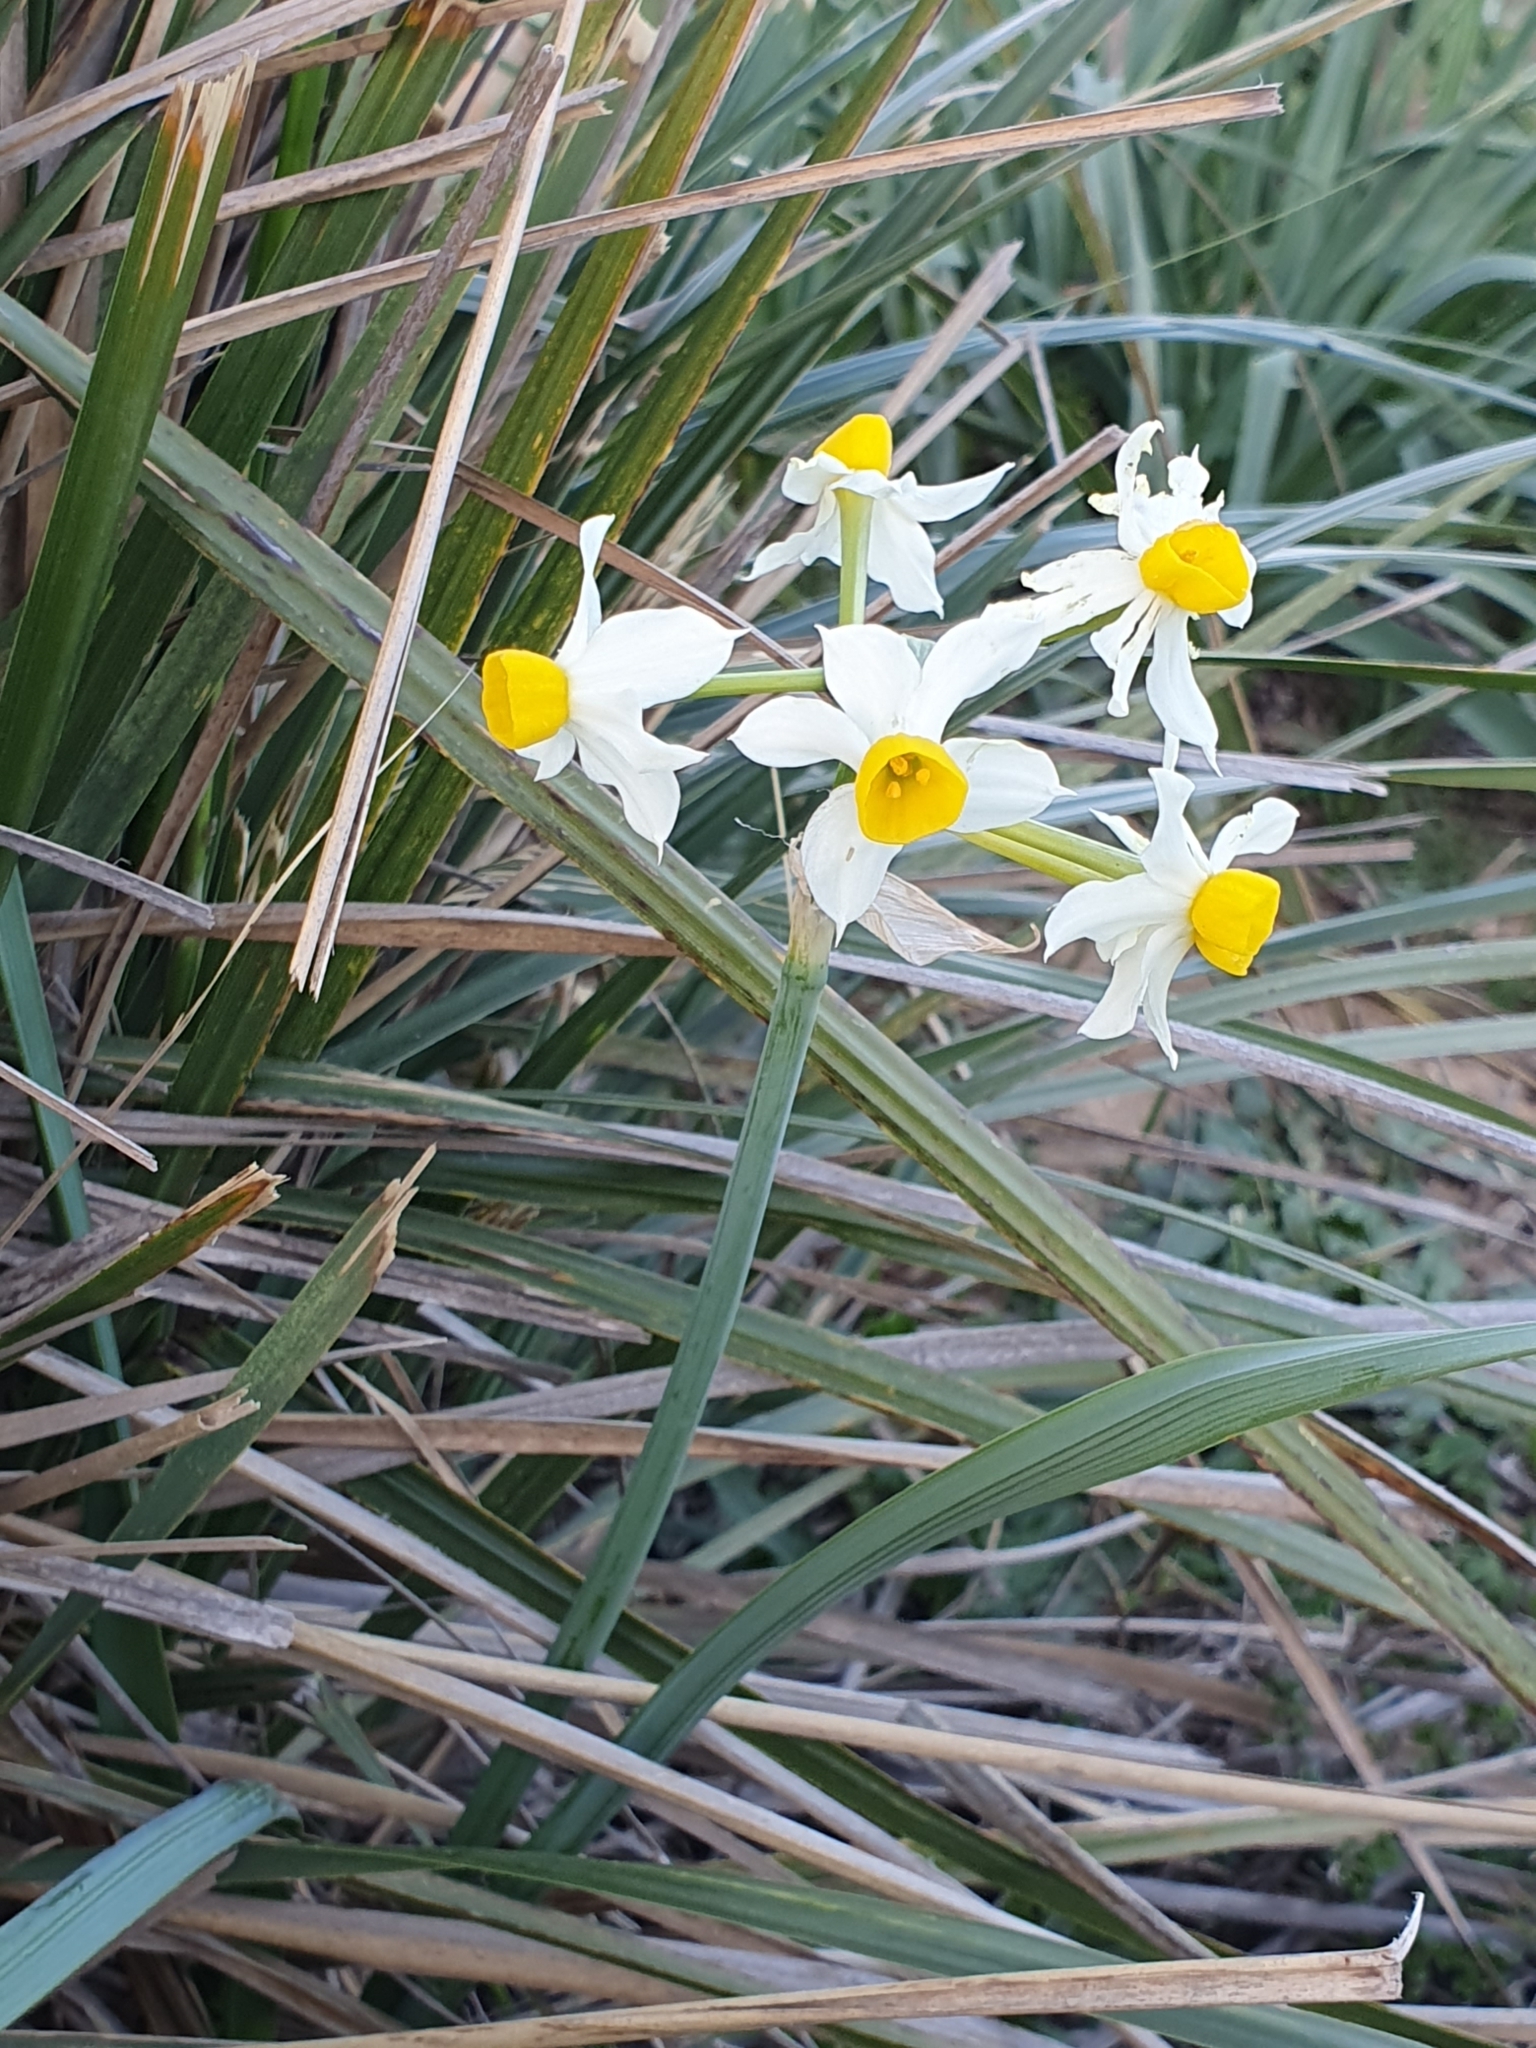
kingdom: Plantae
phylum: Tracheophyta
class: Liliopsida
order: Asparagales
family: Amaryllidaceae
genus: Narcissus
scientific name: Narcissus tazetta
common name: Bunch-flowered daffodil
